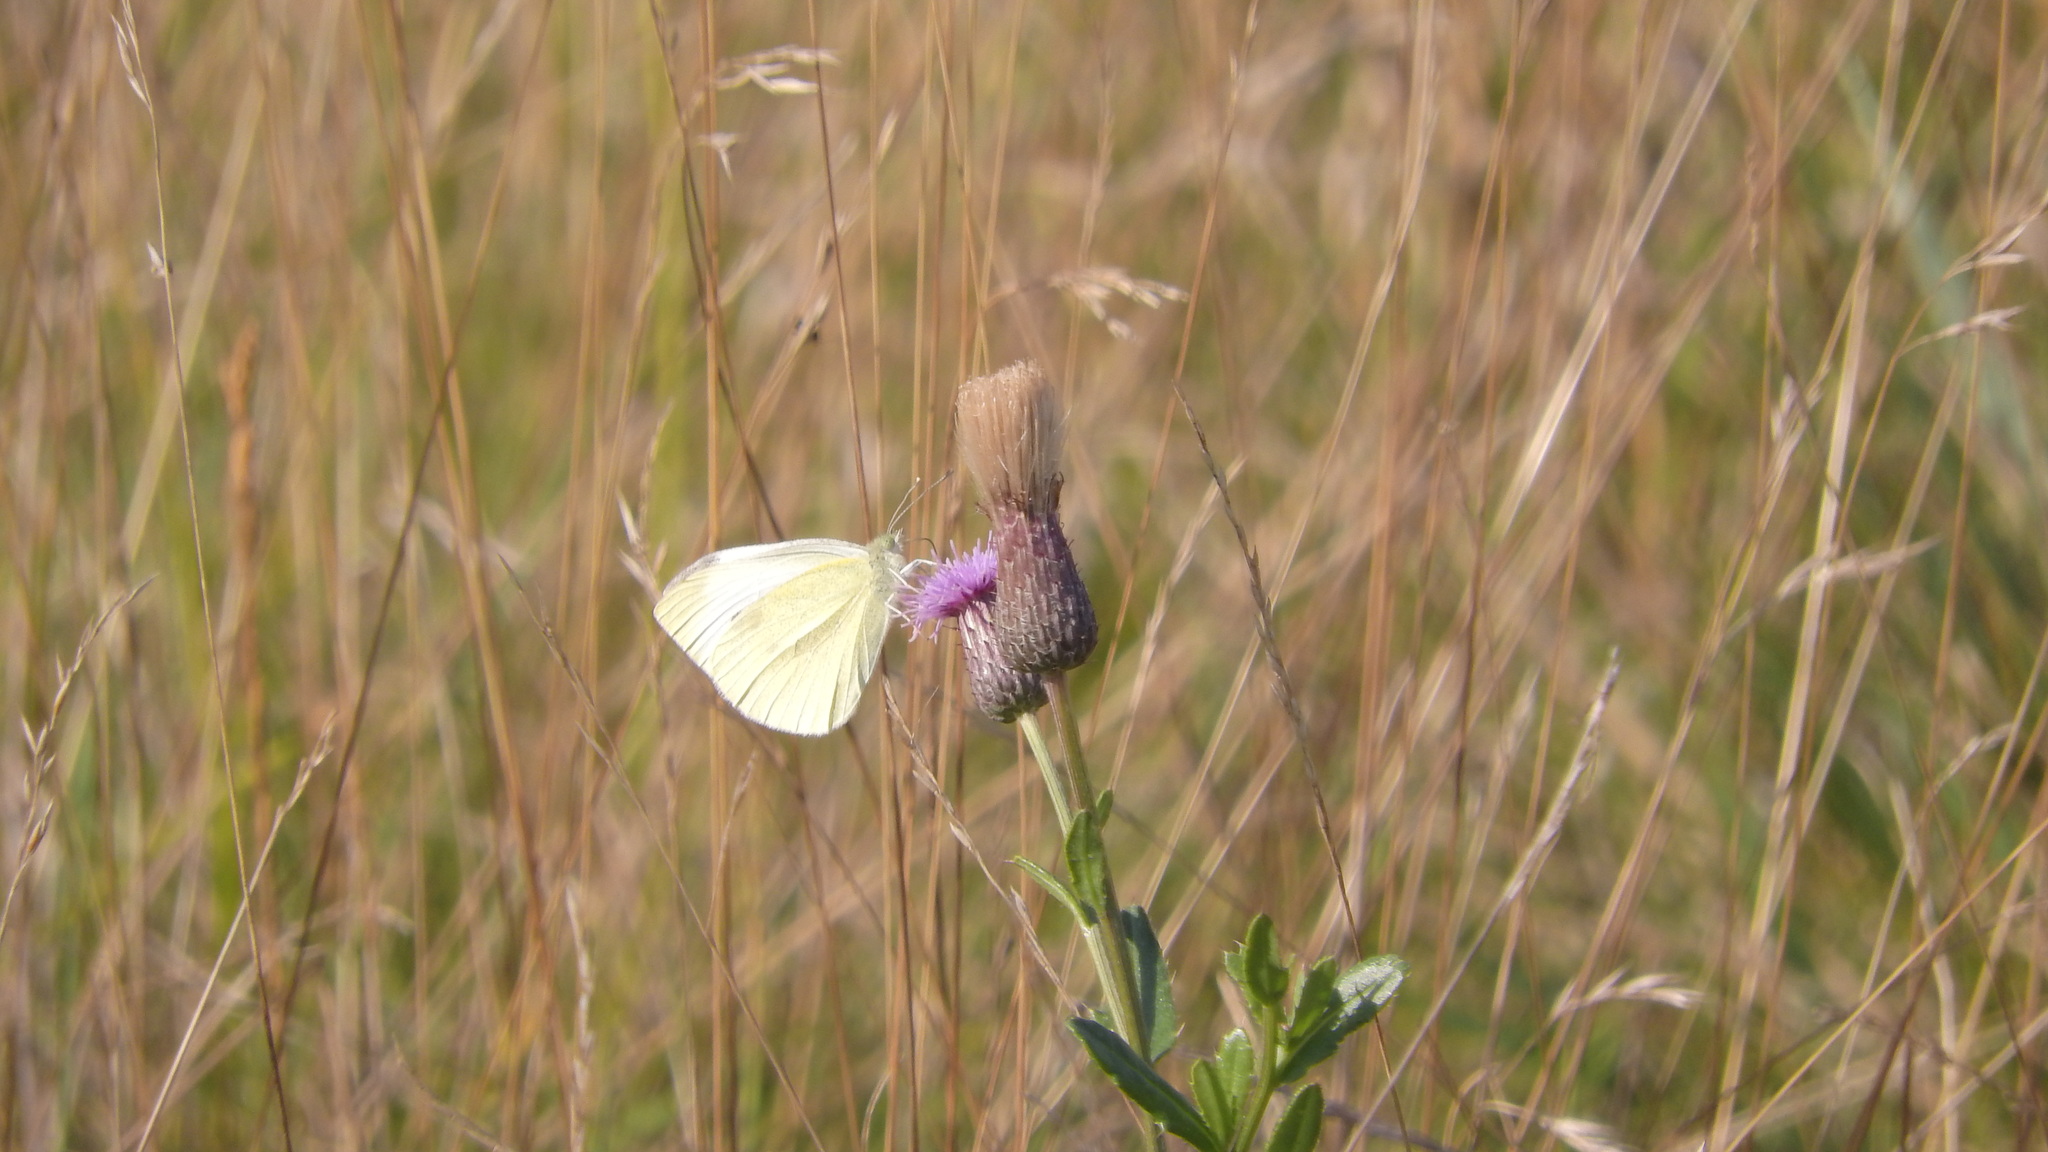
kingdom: Animalia
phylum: Arthropoda
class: Insecta
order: Lepidoptera
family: Pieridae
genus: Pieris
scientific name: Pieris rapae
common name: Small white
